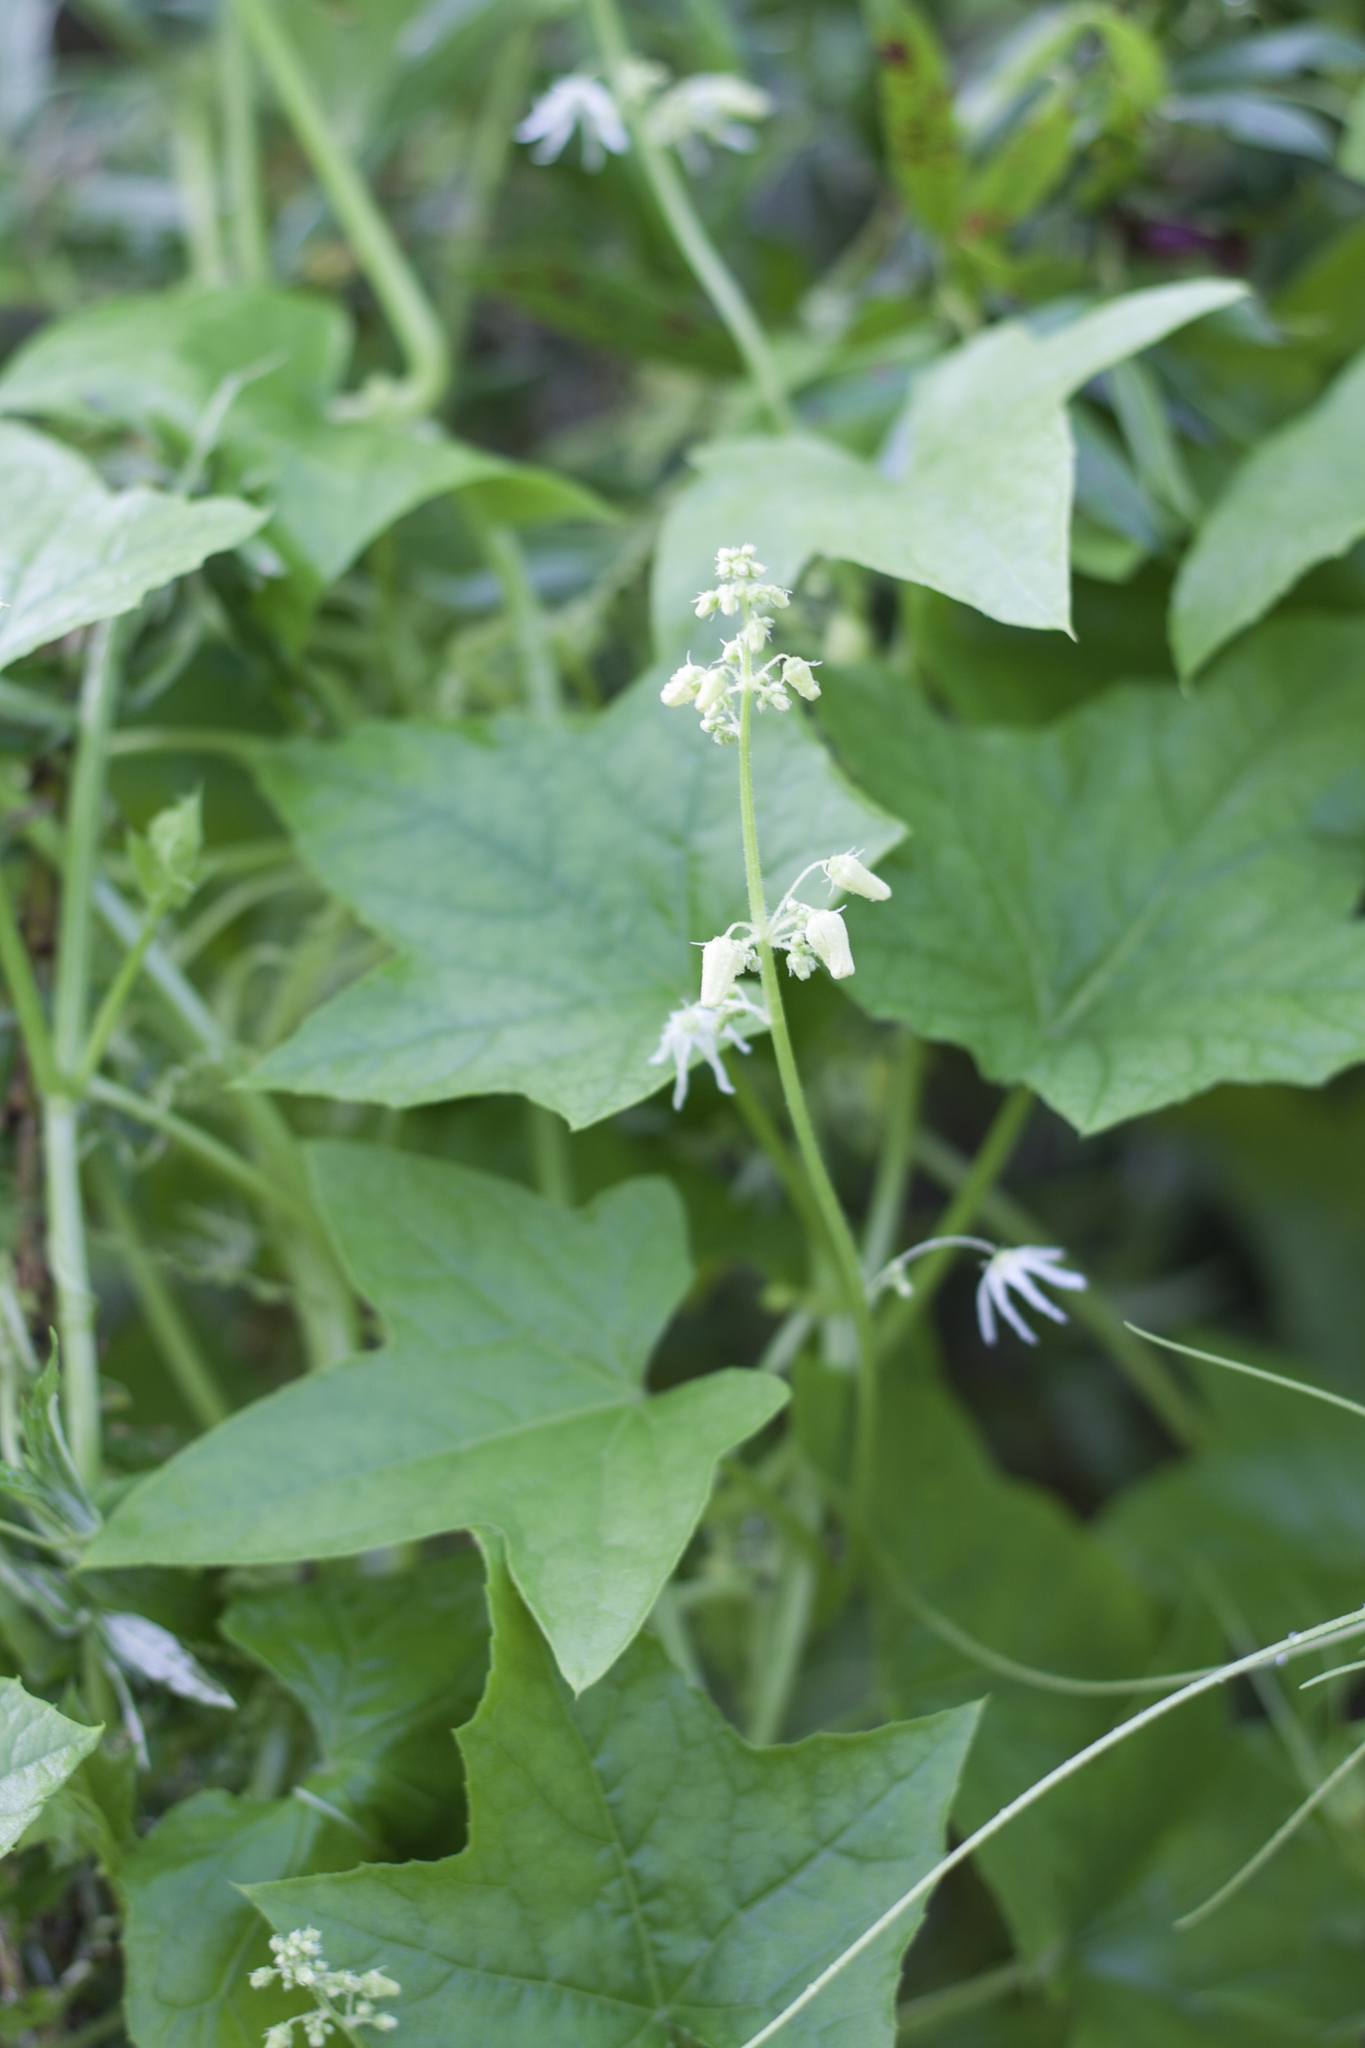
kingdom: Plantae
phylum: Tracheophyta
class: Magnoliopsida
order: Cucurbitales
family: Cucurbitaceae
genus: Echinocystis
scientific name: Echinocystis lobata
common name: Wild cucumber
